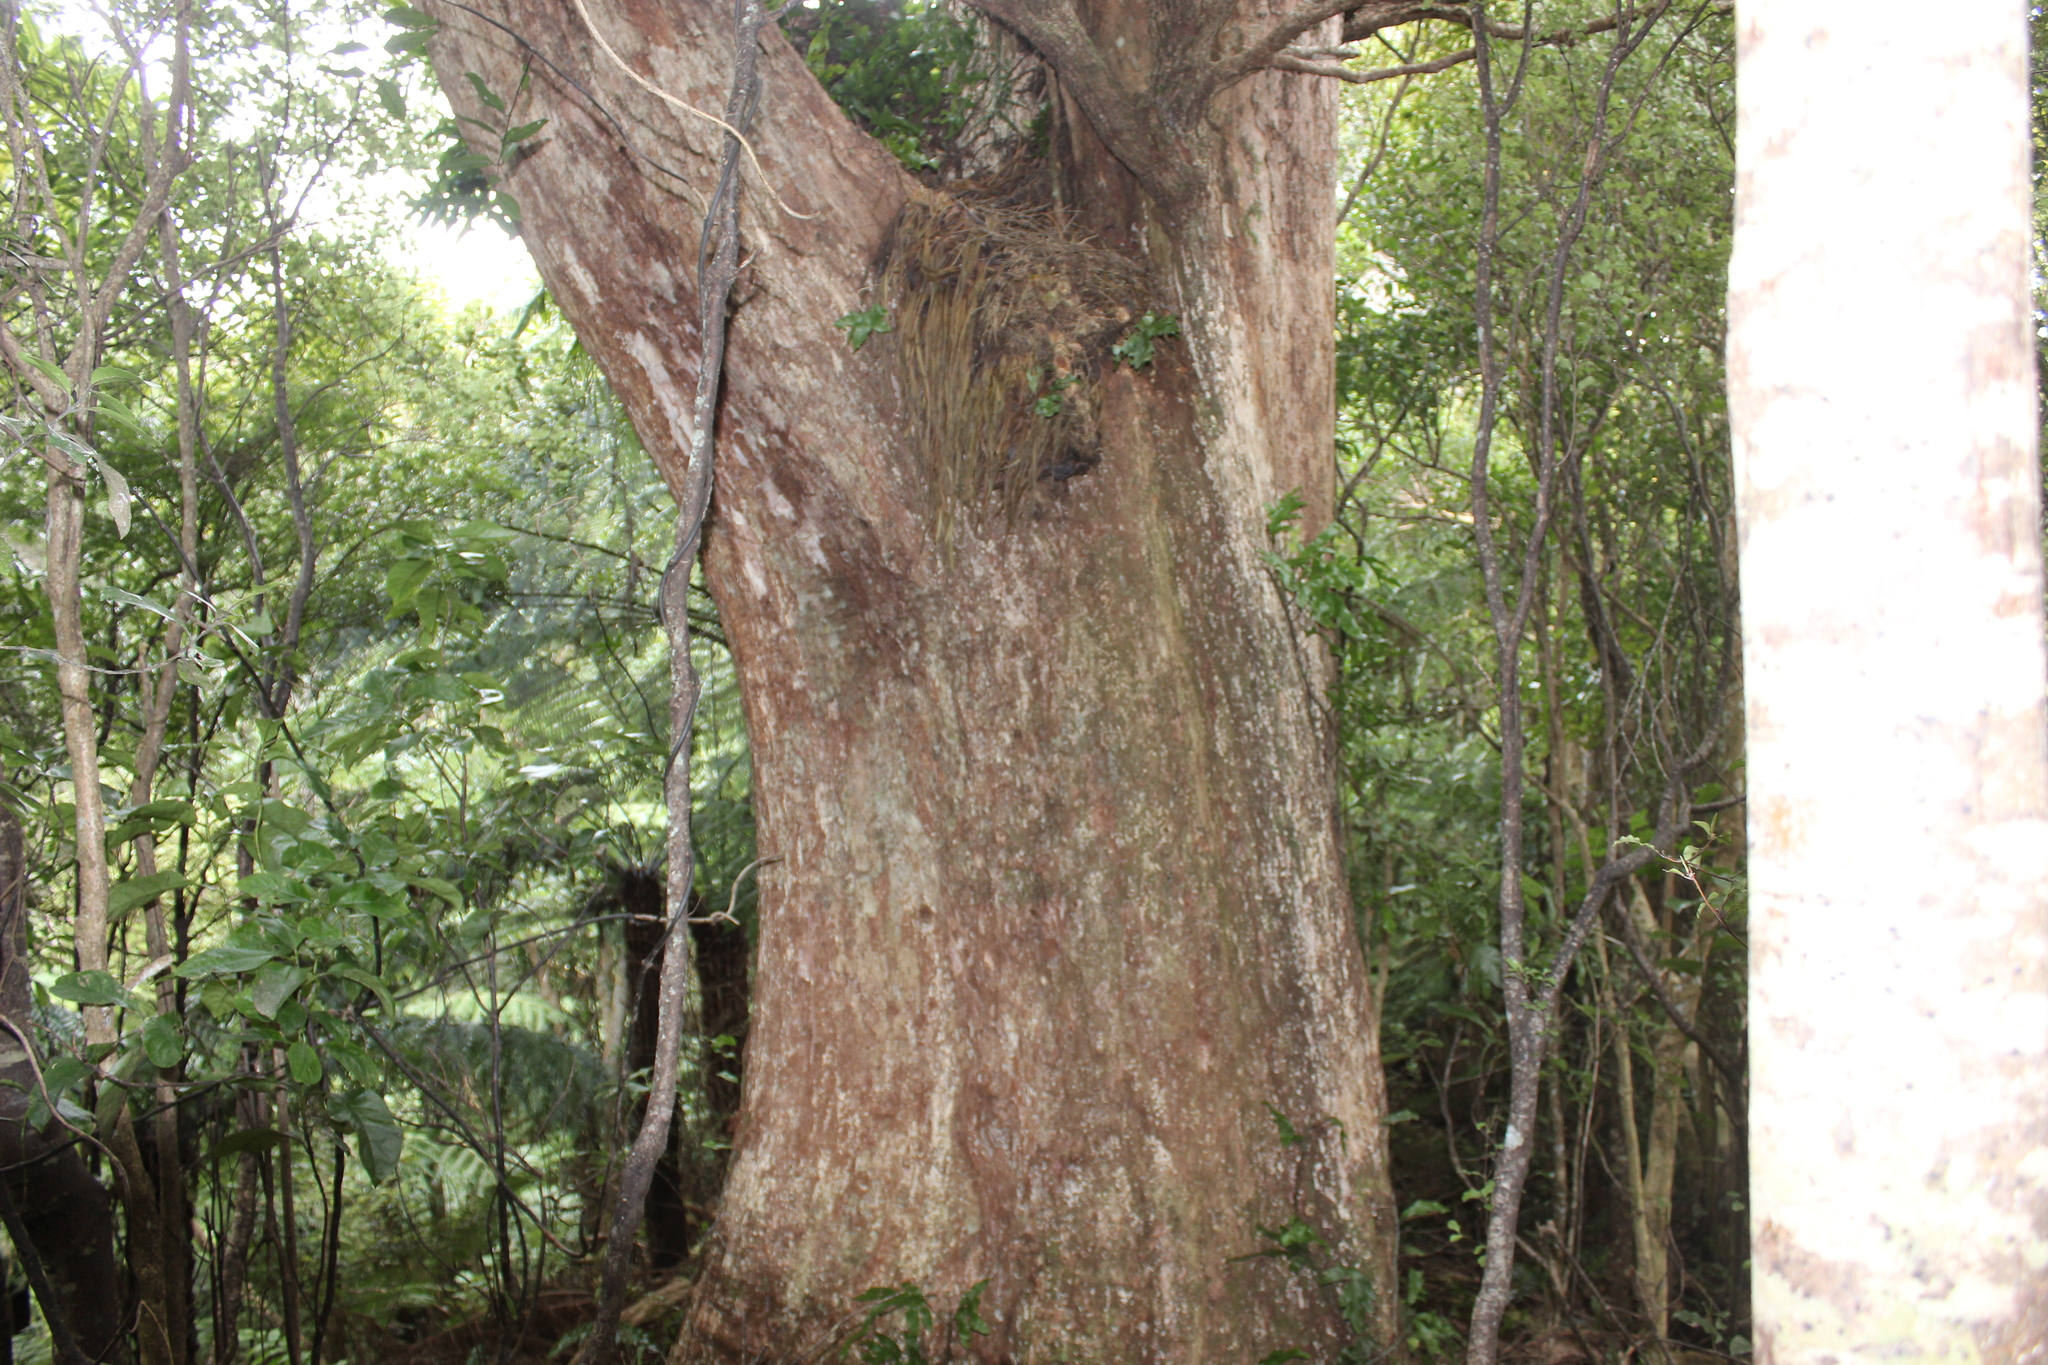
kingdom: Plantae
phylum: Tracheophyta
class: Magnoliopsida
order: Myrtales
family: Myrtaceae
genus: Metrosideros
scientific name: Metrosideros robusta
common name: Northern rata
